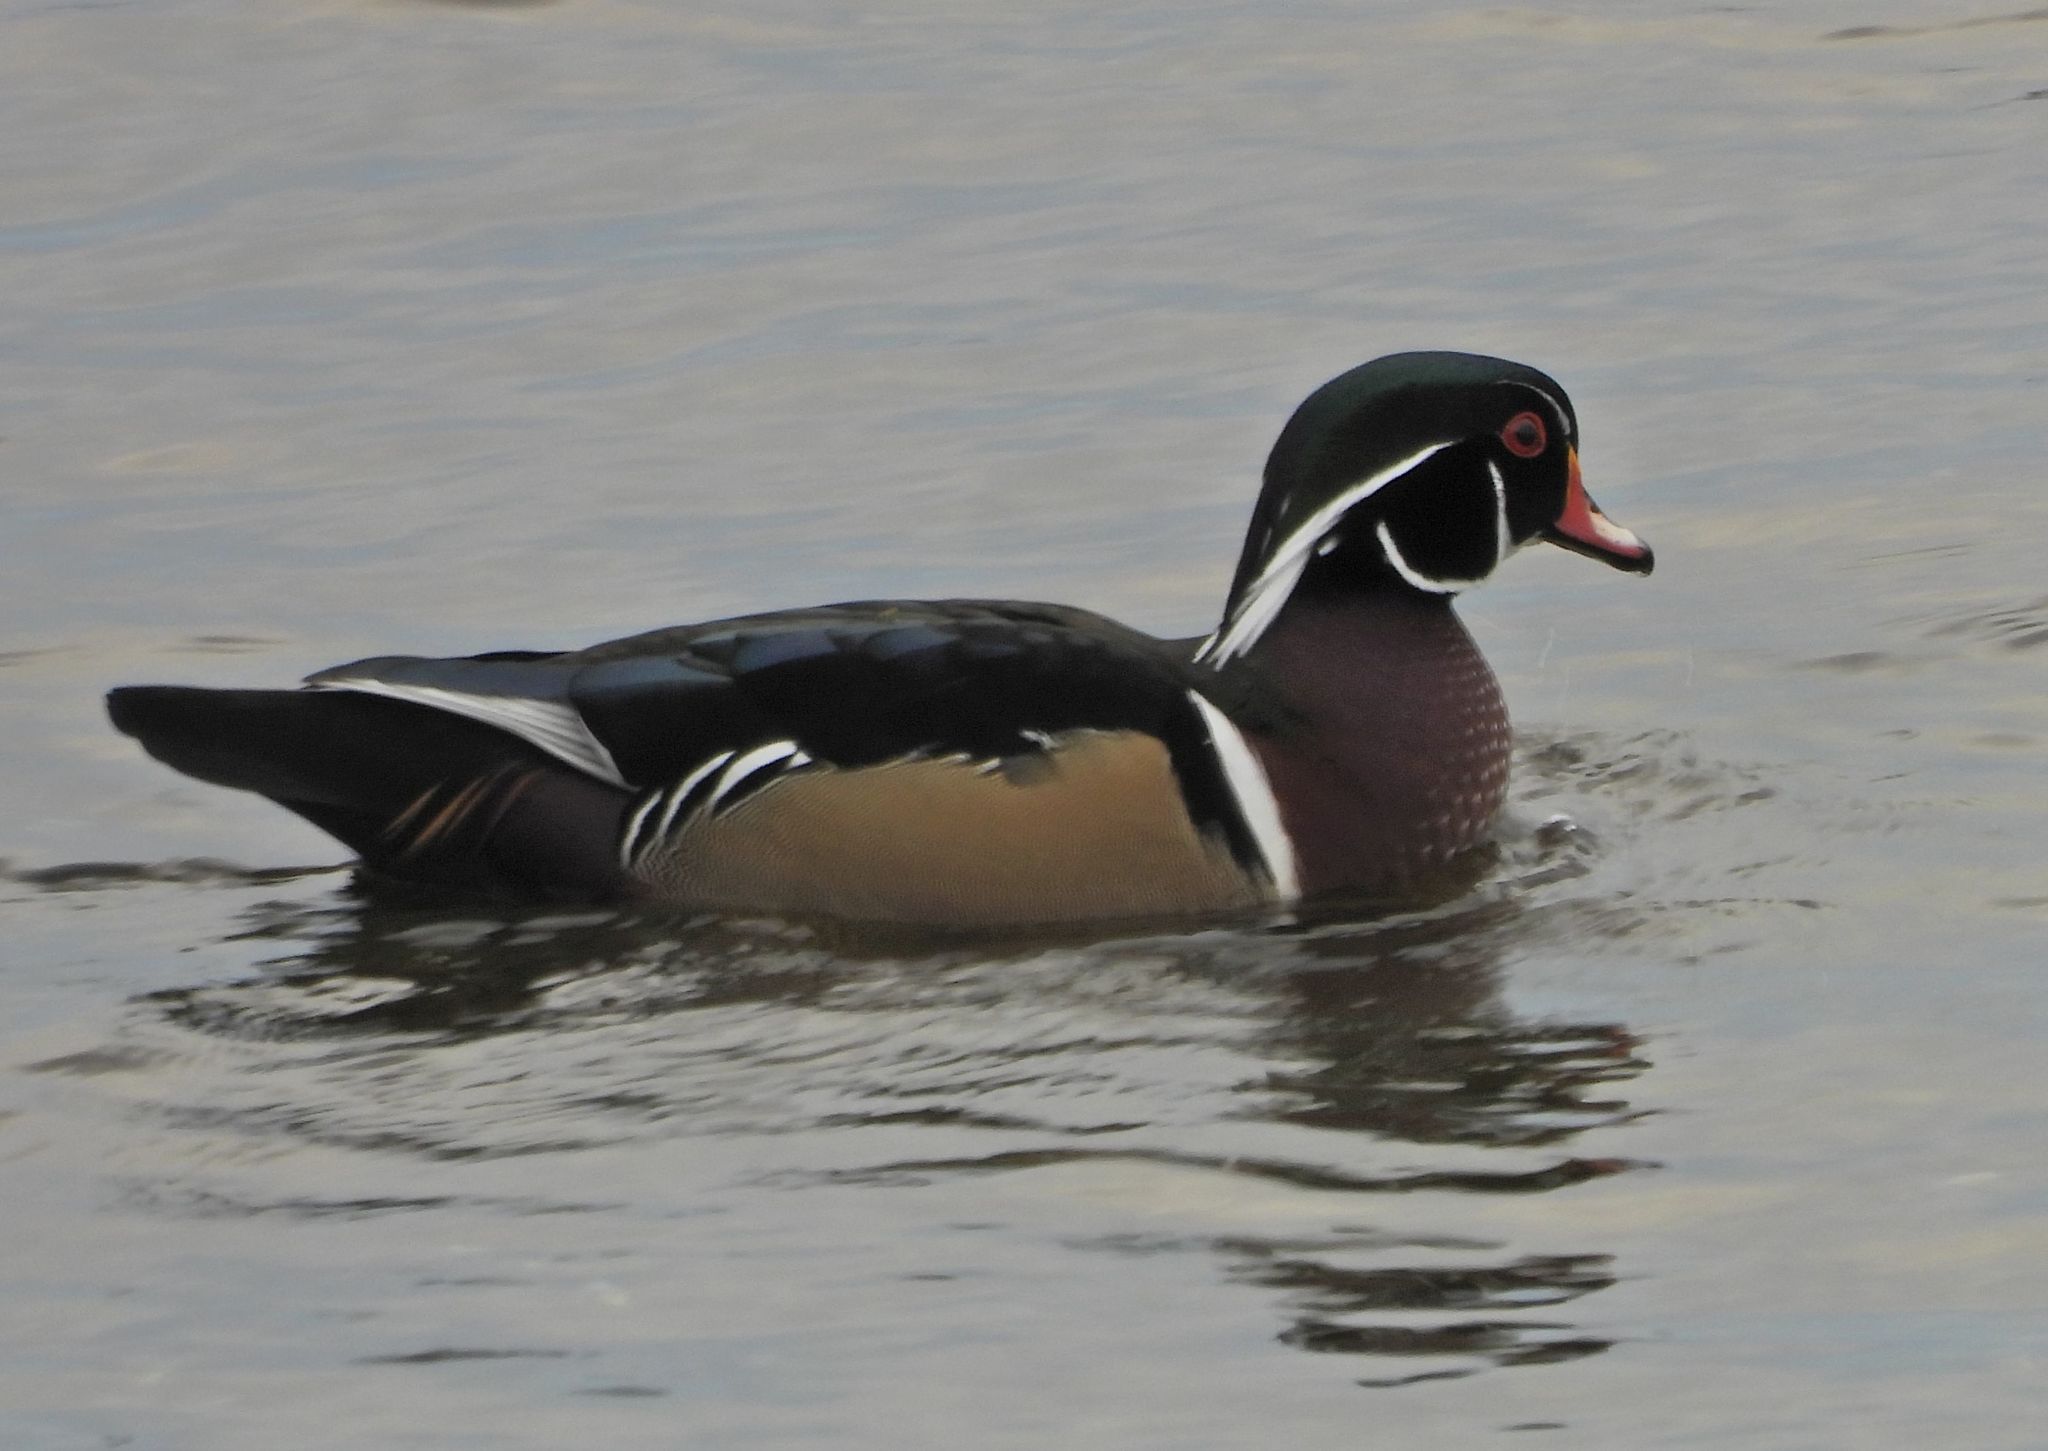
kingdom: Animalia
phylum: Chordata
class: Aves
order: Anseriformes
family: Anatidae
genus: Aix
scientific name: Aix sponsa
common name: Wood duck
